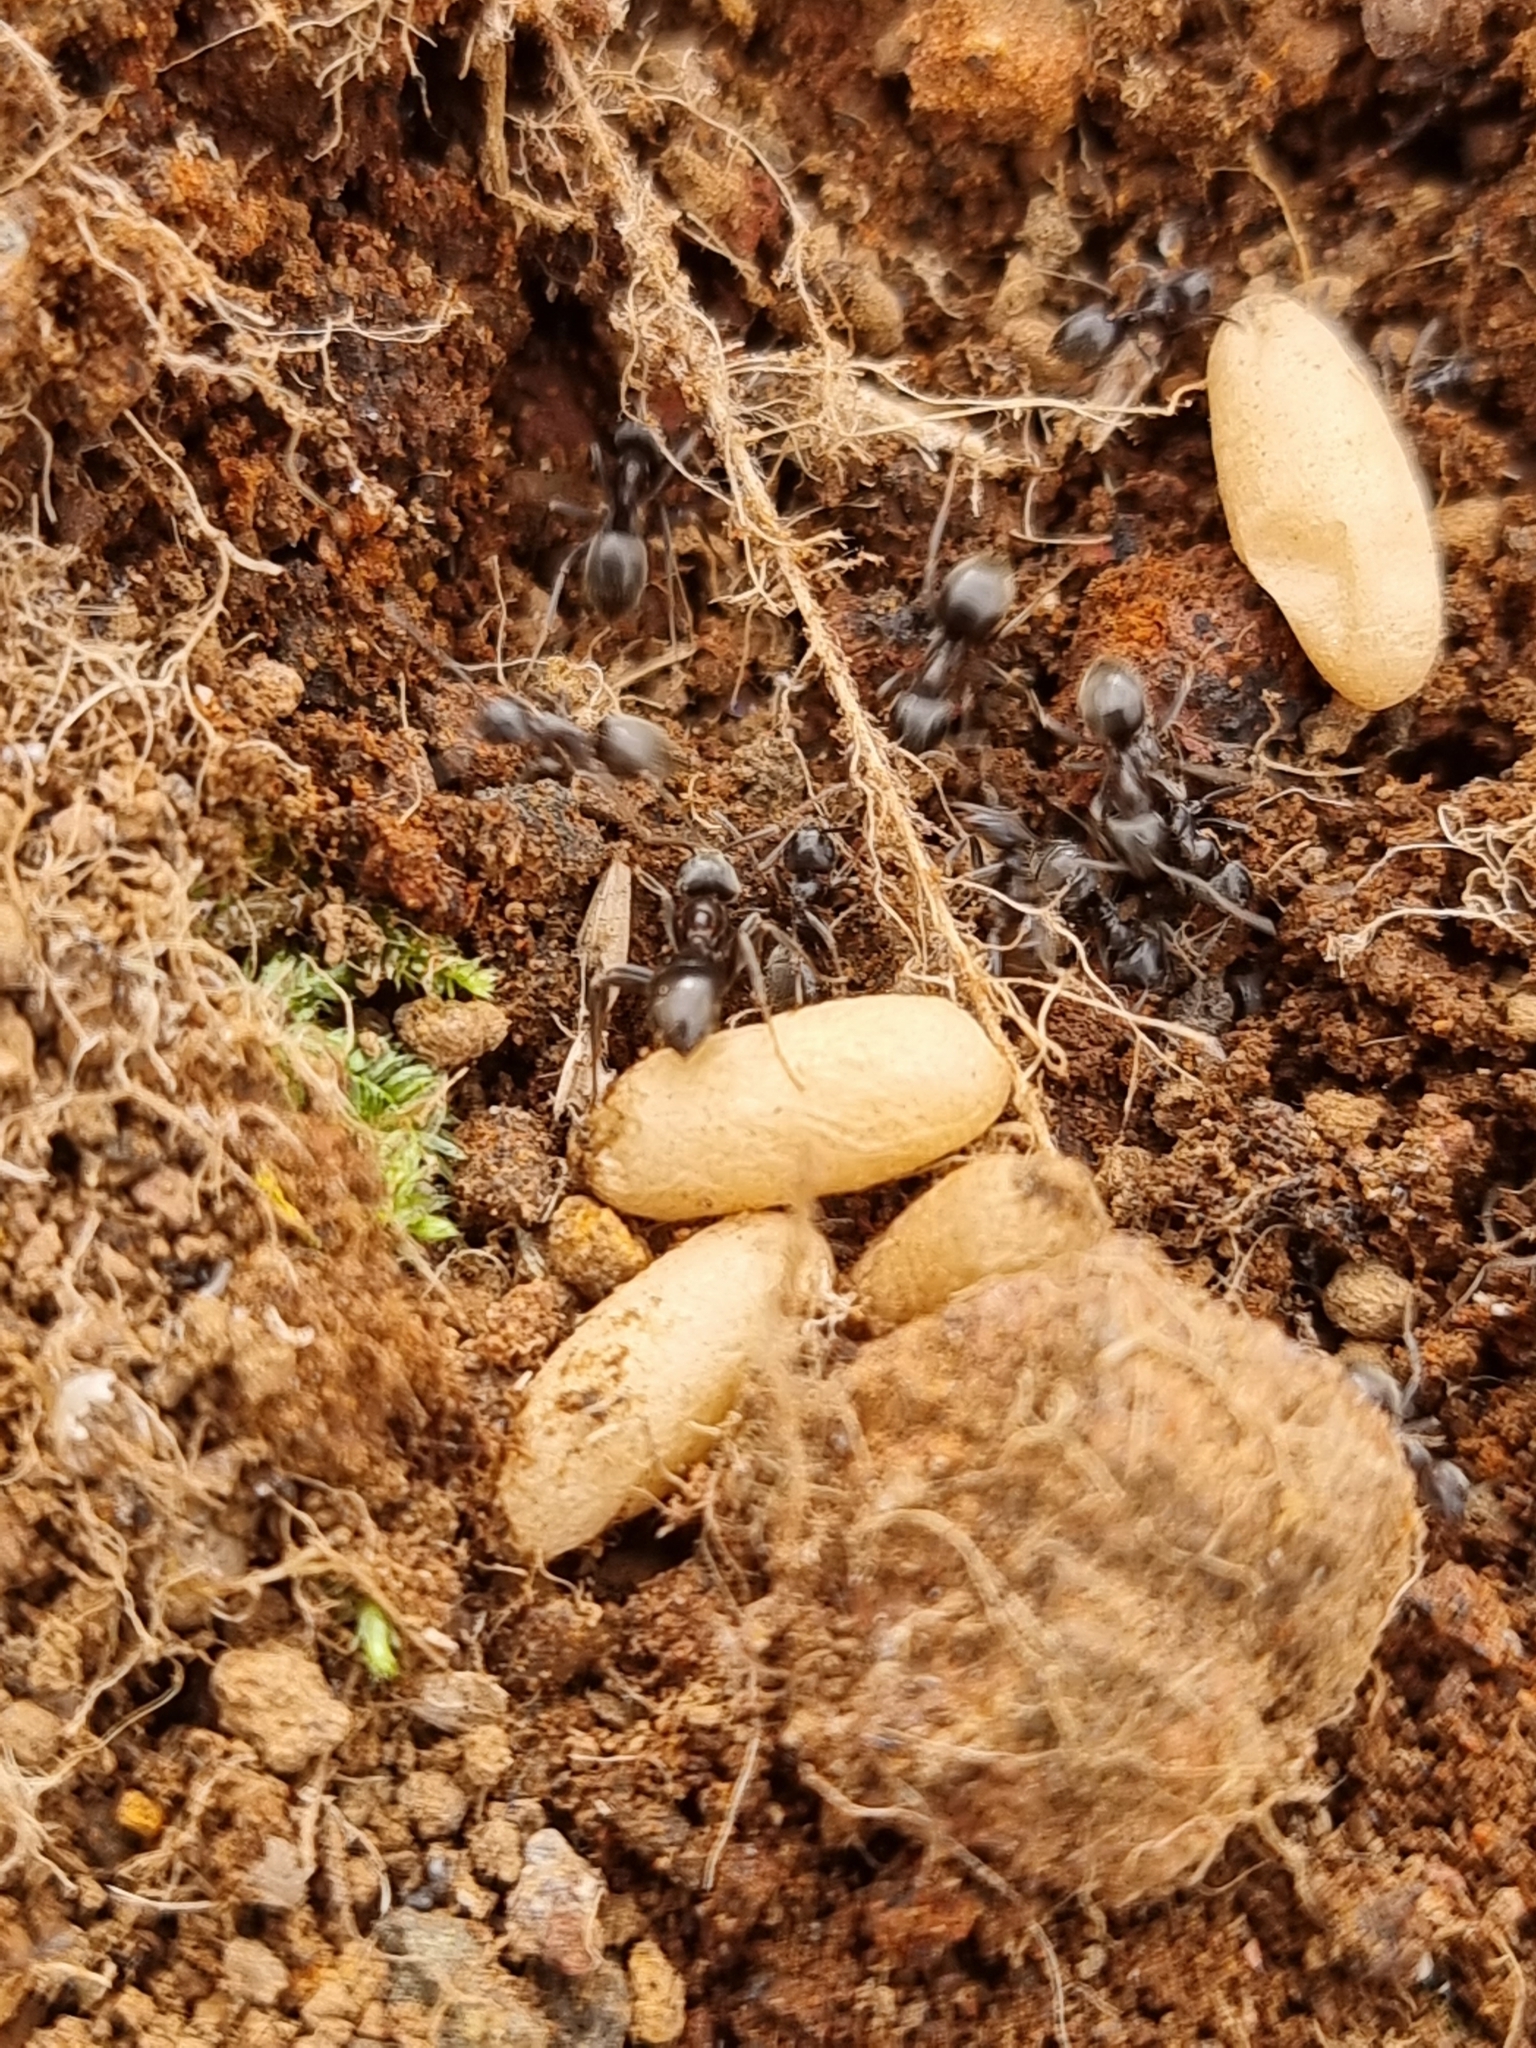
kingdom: Animalia
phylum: Arthropoda
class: Insecta
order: Hymenoptera
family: Formicidae
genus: Lasius
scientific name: Lasius grandis
